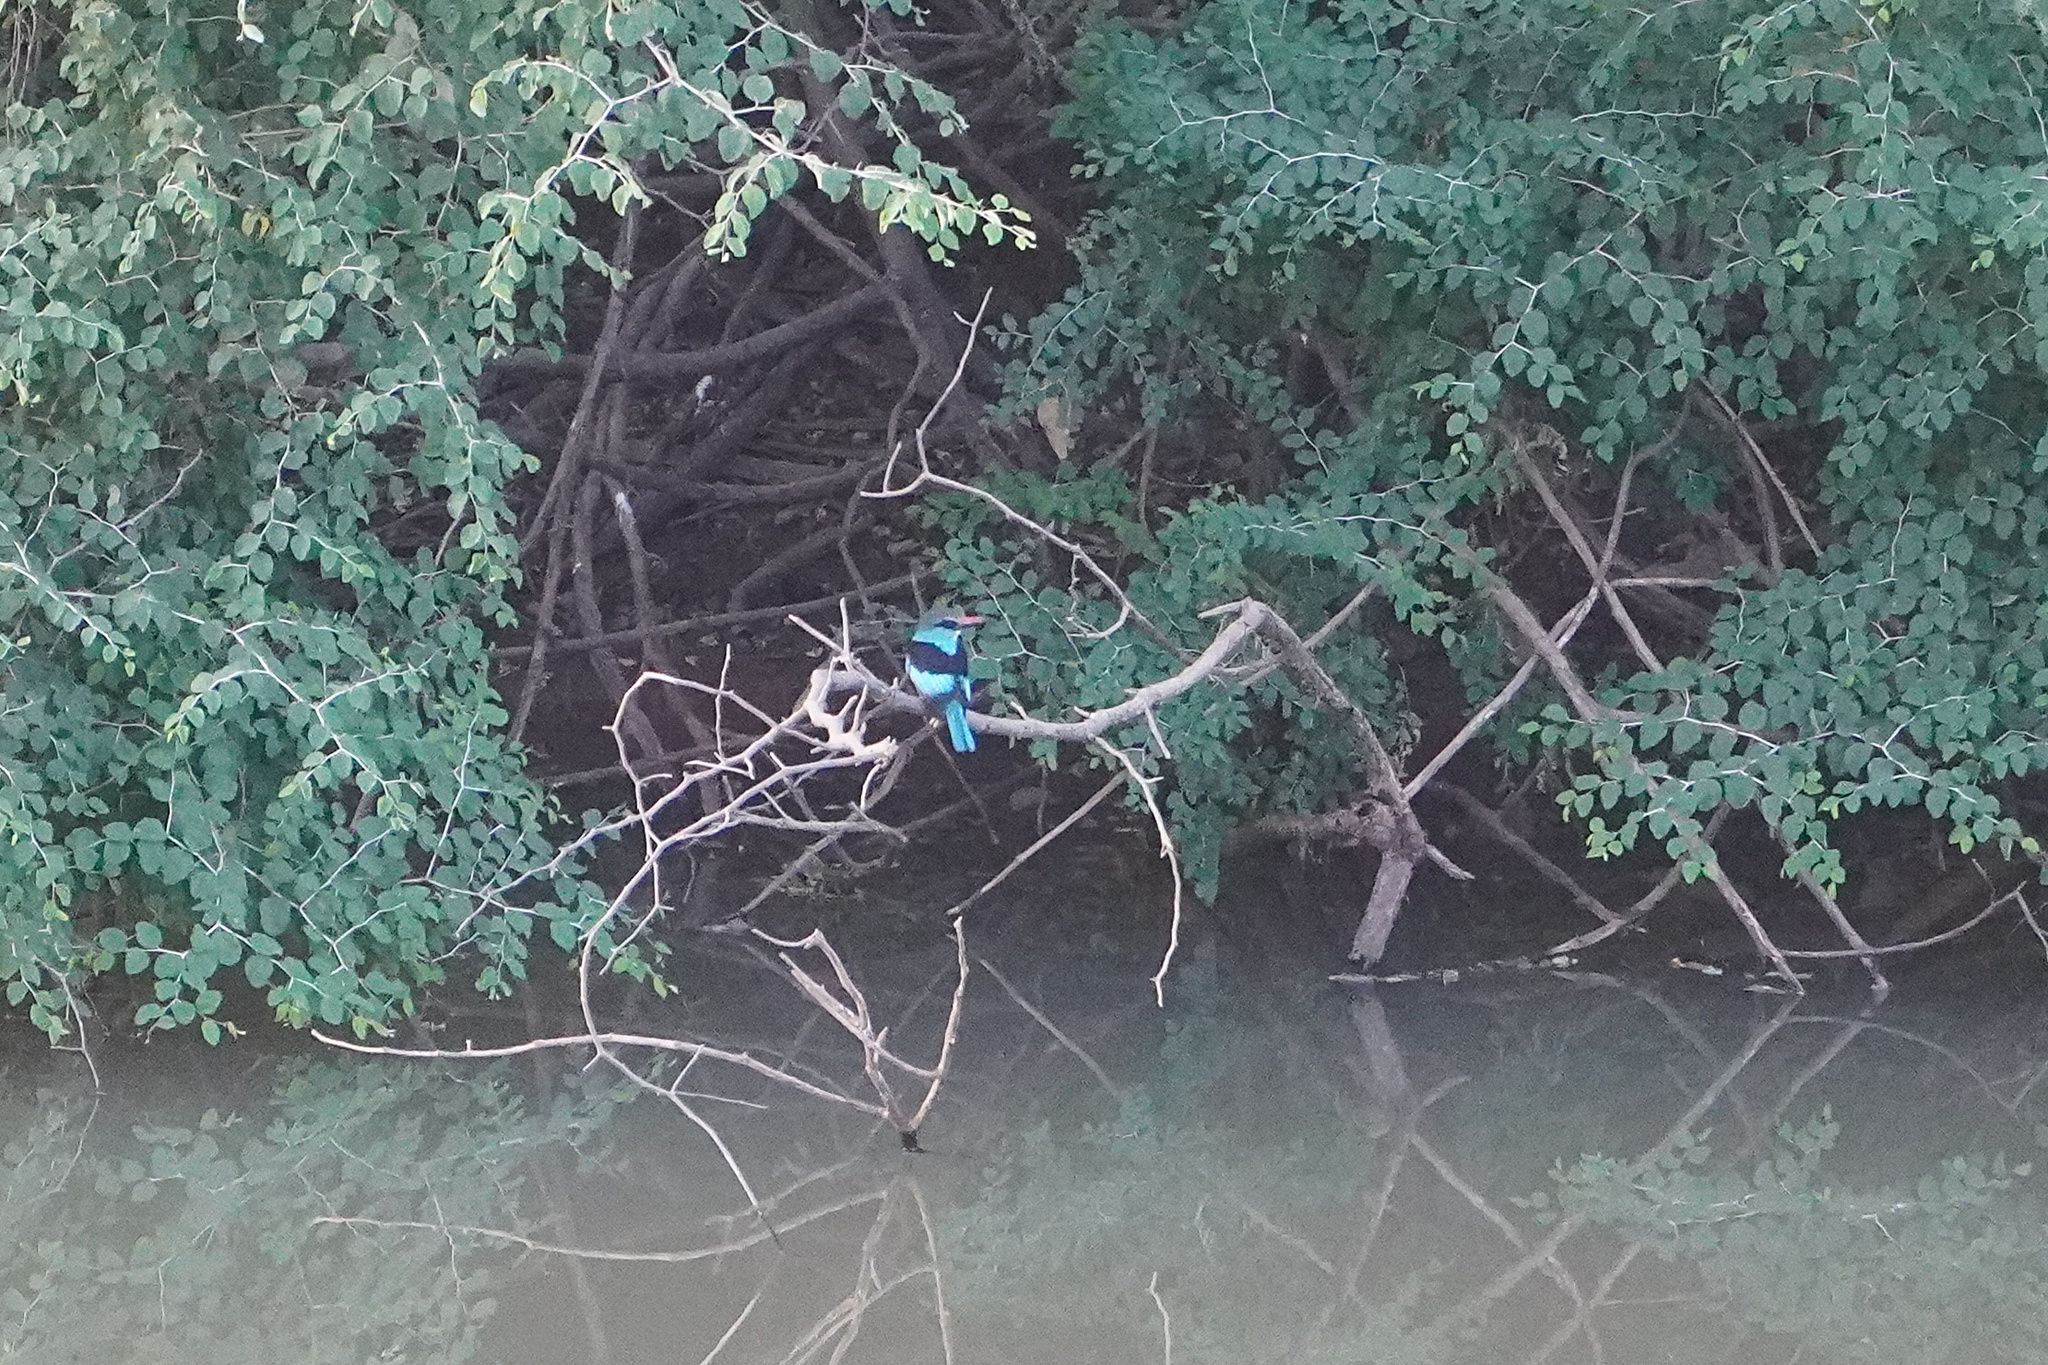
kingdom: Animalia
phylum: Chordata
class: Aves
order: Coraciiformes
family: Alcedinidae
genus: Halcyon
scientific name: Halcyon malimbica
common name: Blue-breasted kingfisher
